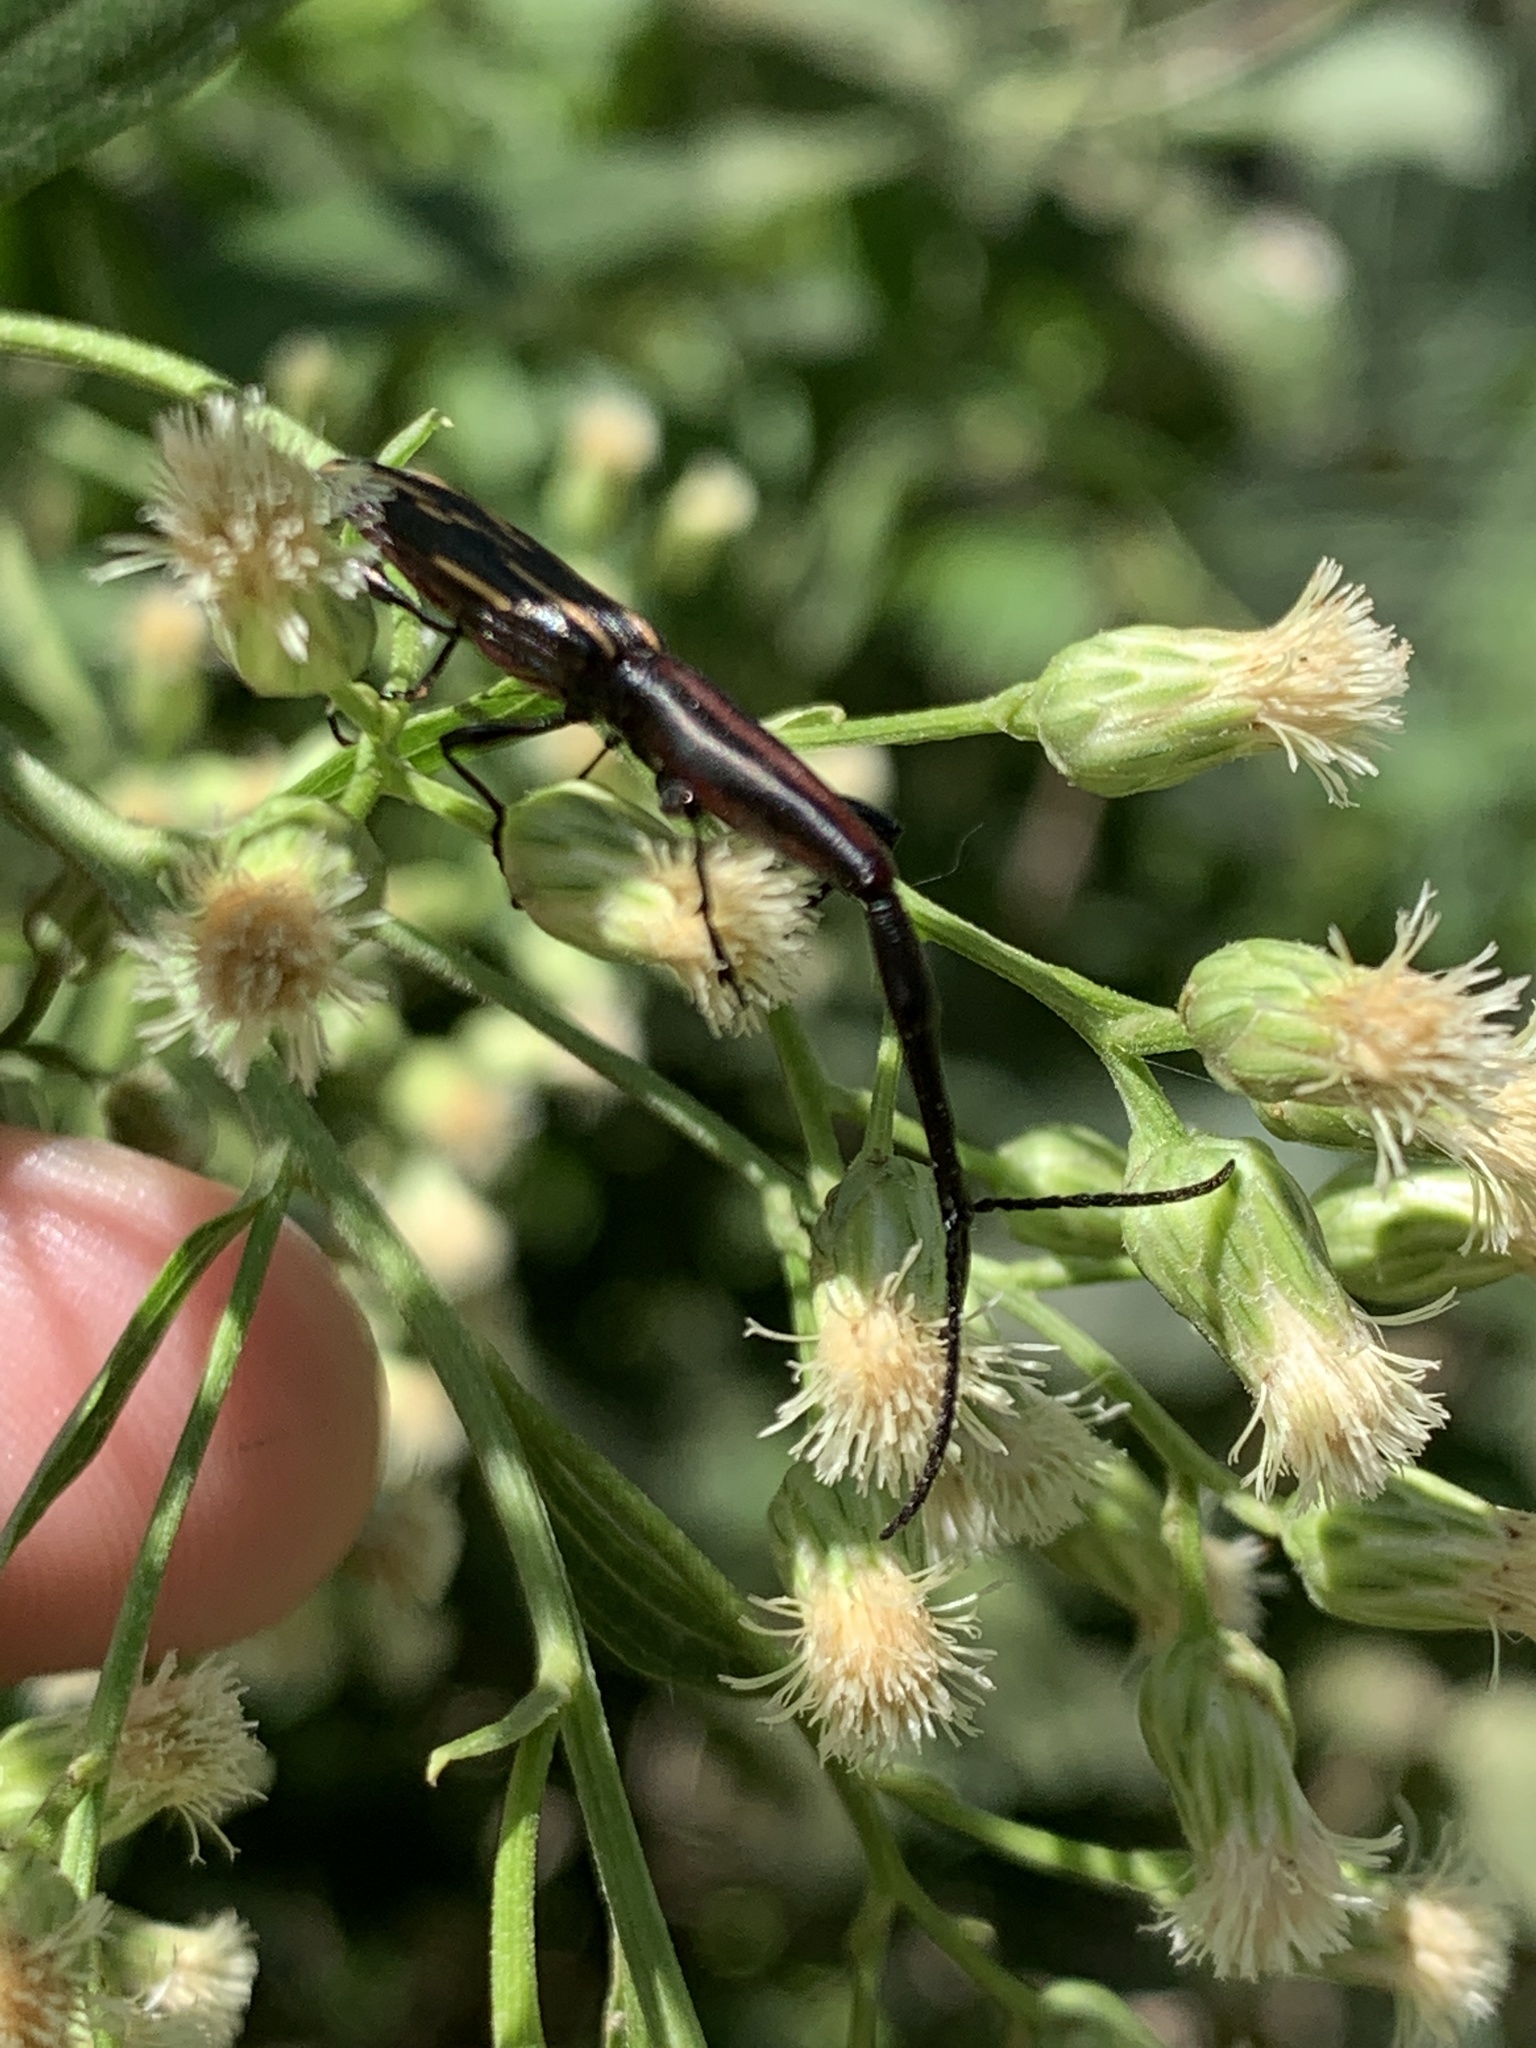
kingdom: Animalia
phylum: Arthropoda
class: Insecta
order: Coleoptera
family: Brentidae
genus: Brentus
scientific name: Brentus rufiventris
